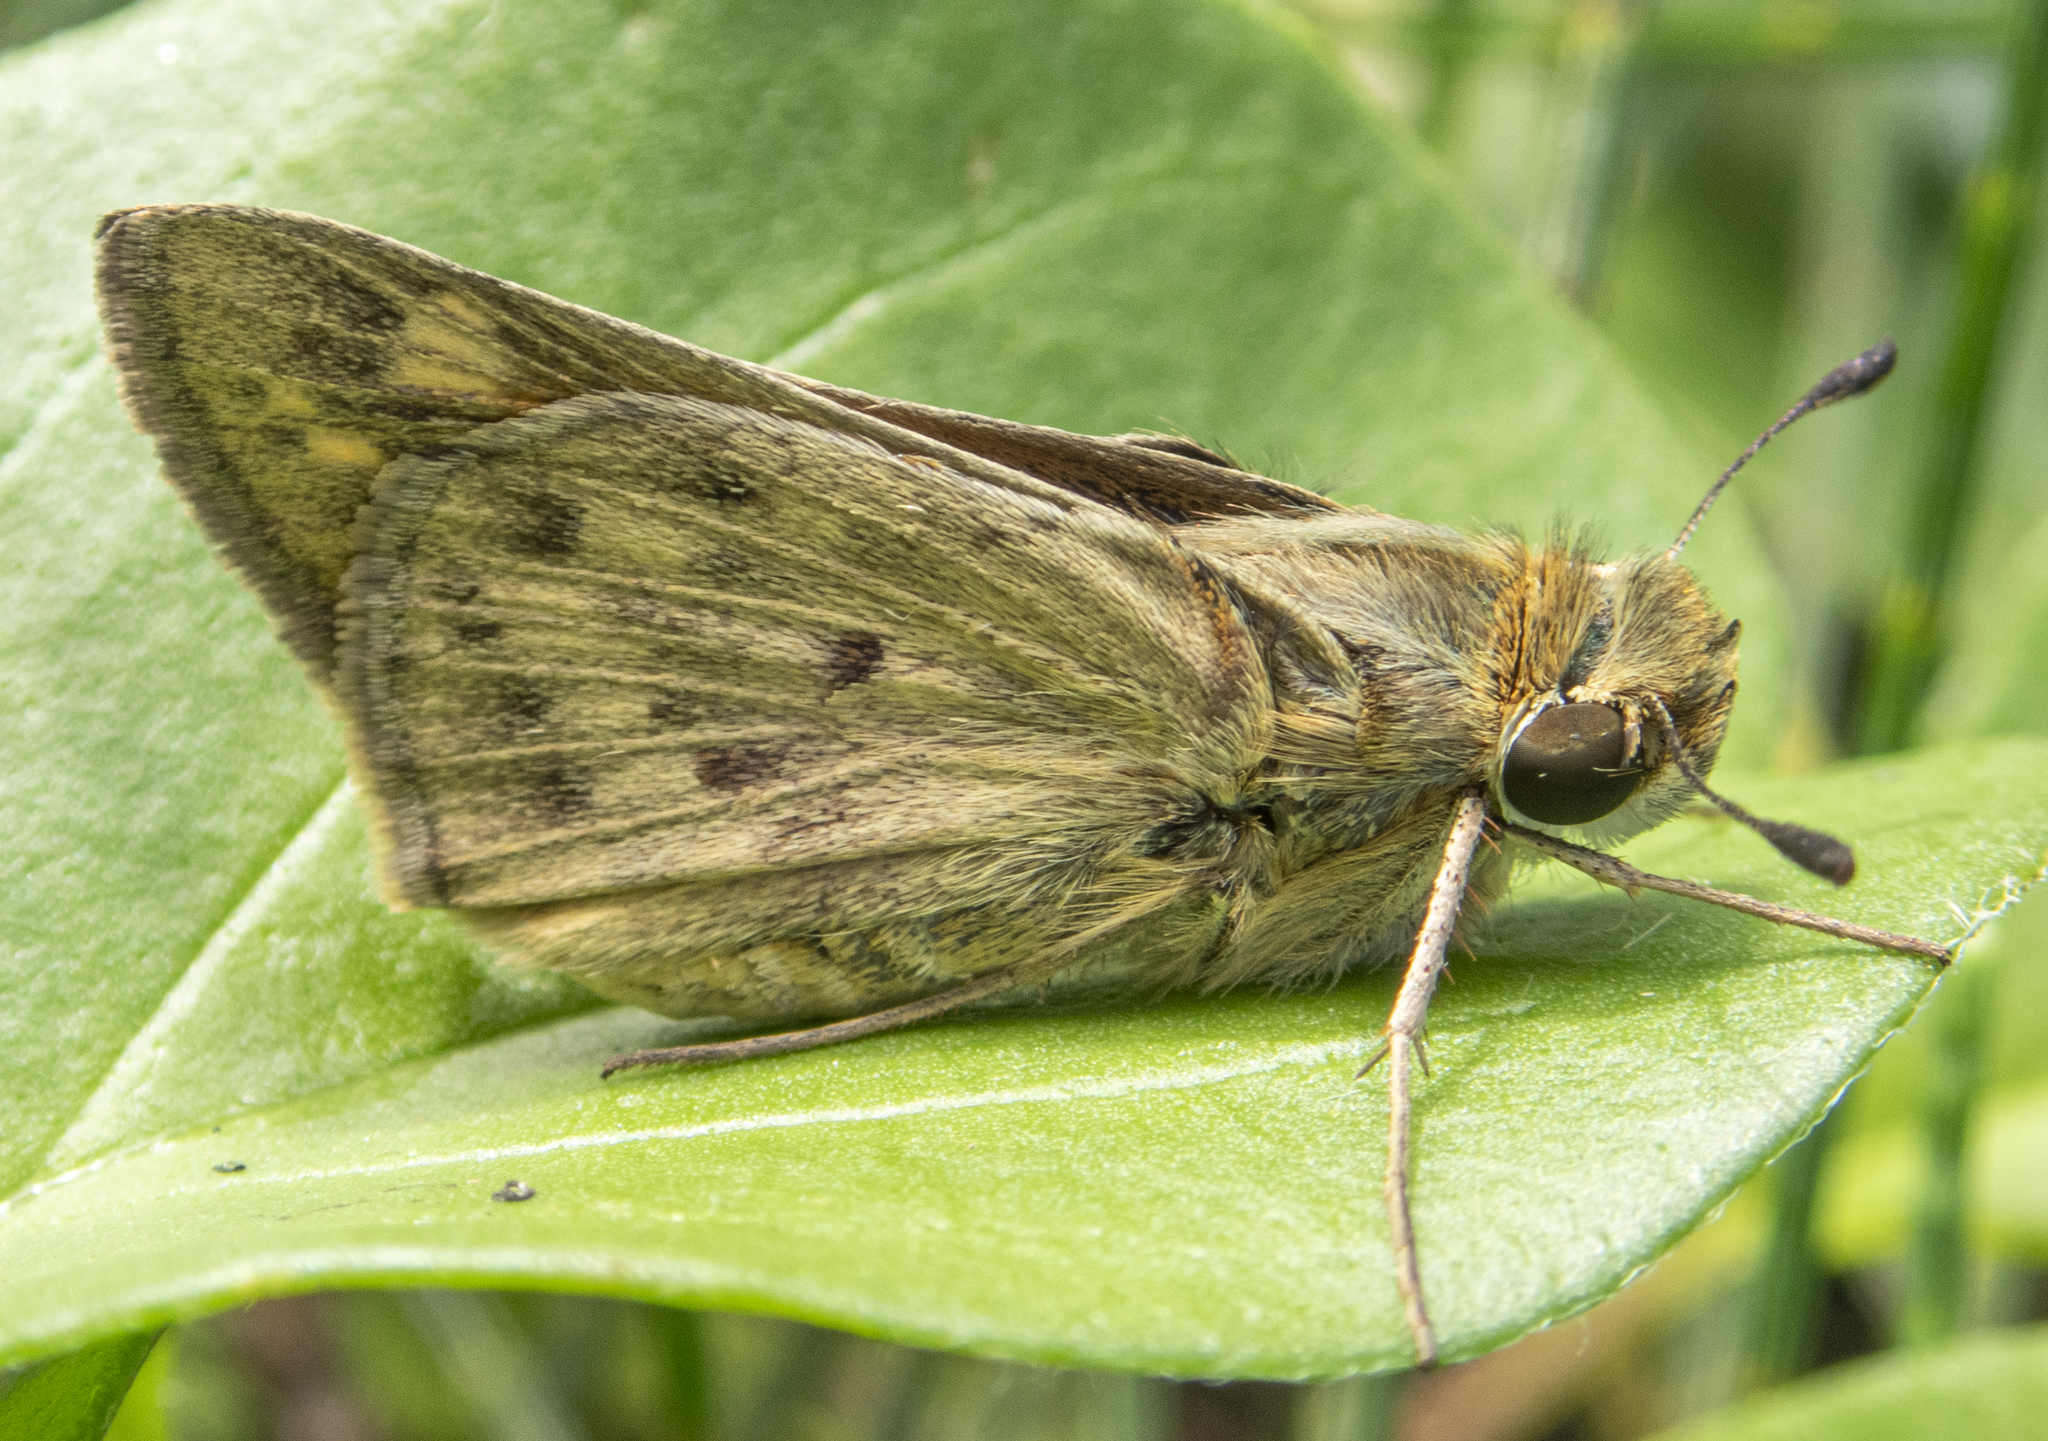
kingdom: Animalia
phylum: Arthropoda
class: Insecta
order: Lepidoptera
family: Hesperiidae
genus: Hylephila
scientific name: Hylephila phyleus
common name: Fiery skipper
